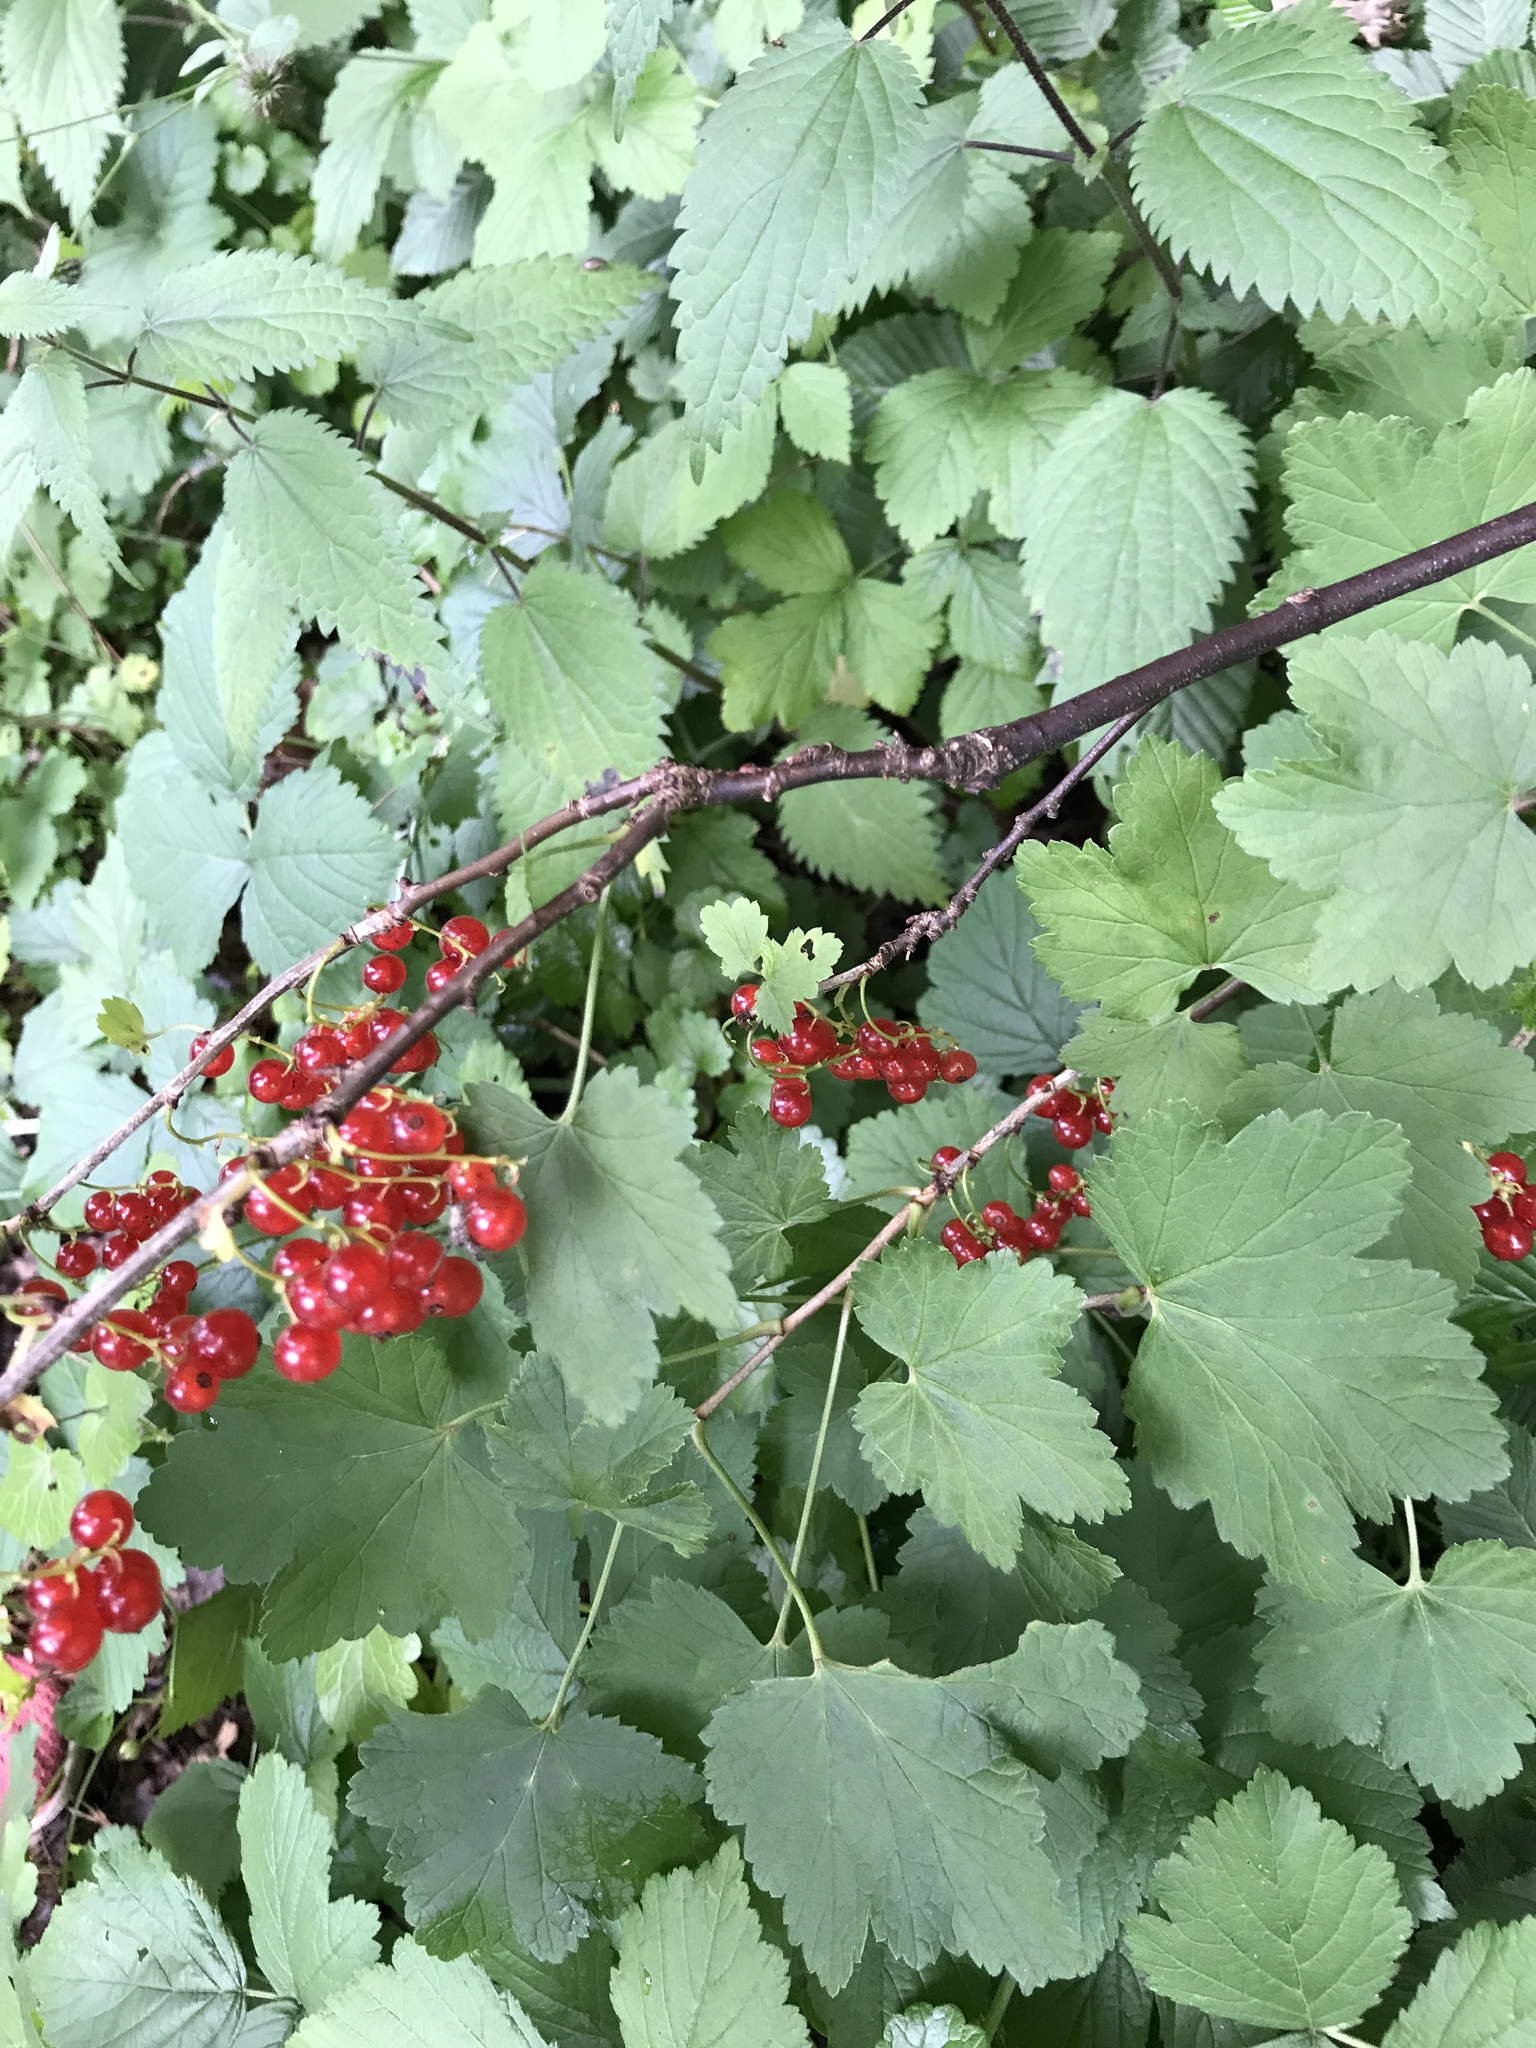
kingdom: Plantae
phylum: Tracheophyta
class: Magnoliopsida
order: Saxifragales
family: Grossulariaceae
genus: Ribes
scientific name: Ribes rubrum
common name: Red currant
